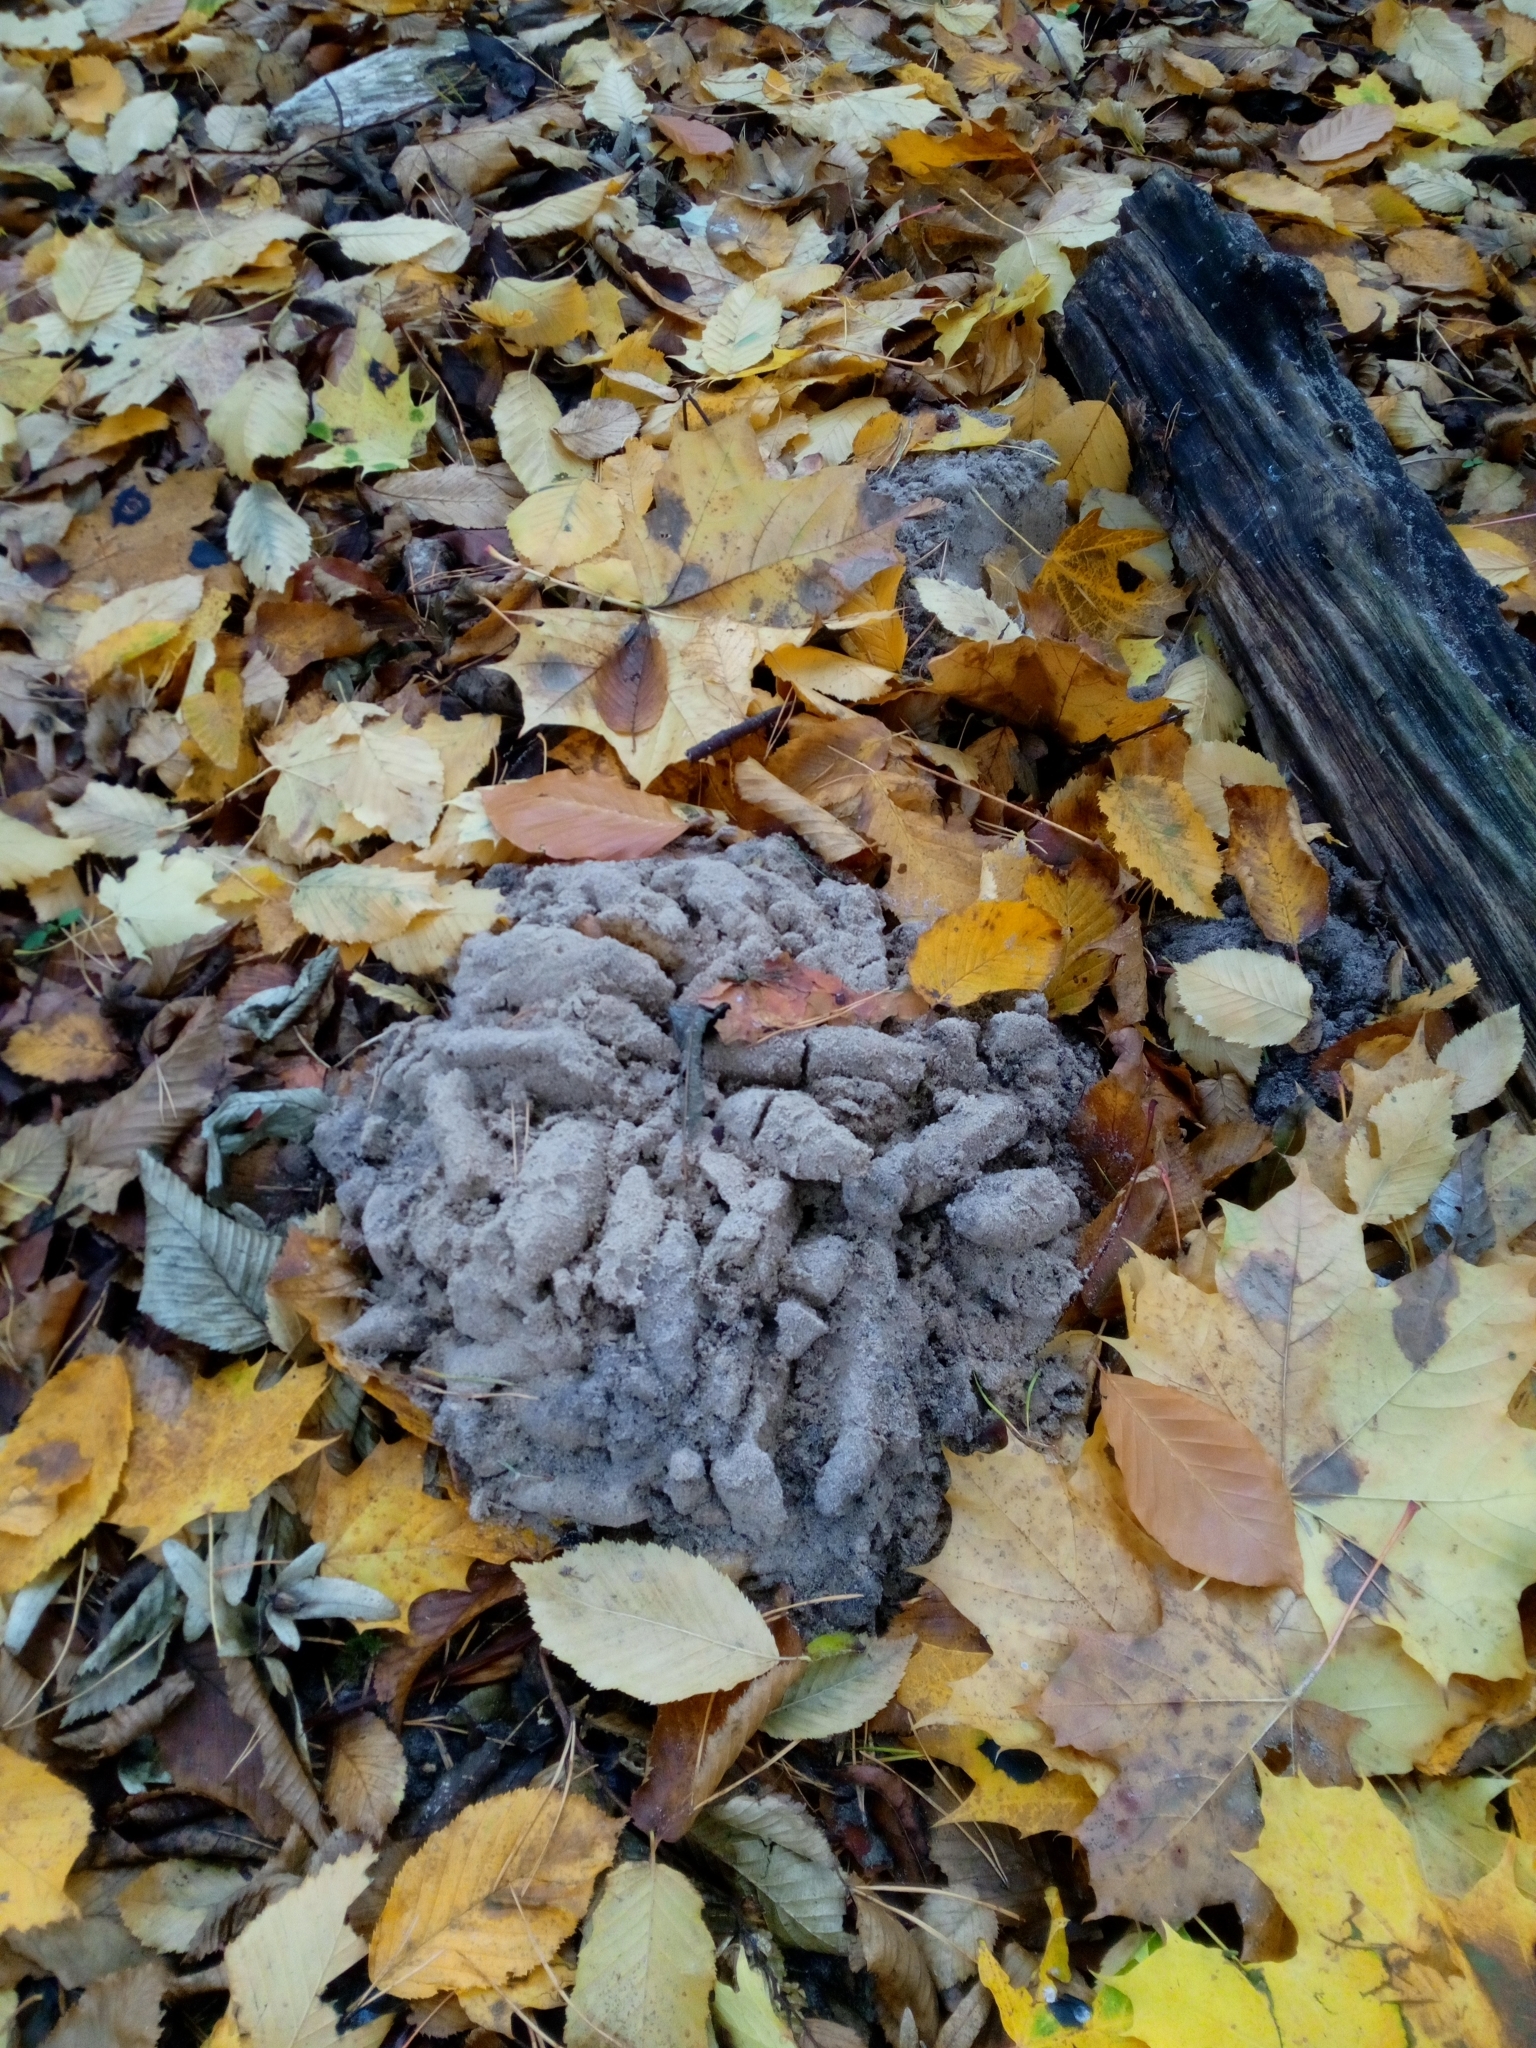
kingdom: Animalia
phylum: Chordata
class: Mammalia
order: Soricomorpha
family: Talpidae
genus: Talpa
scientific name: Talpa europaea
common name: European mole
